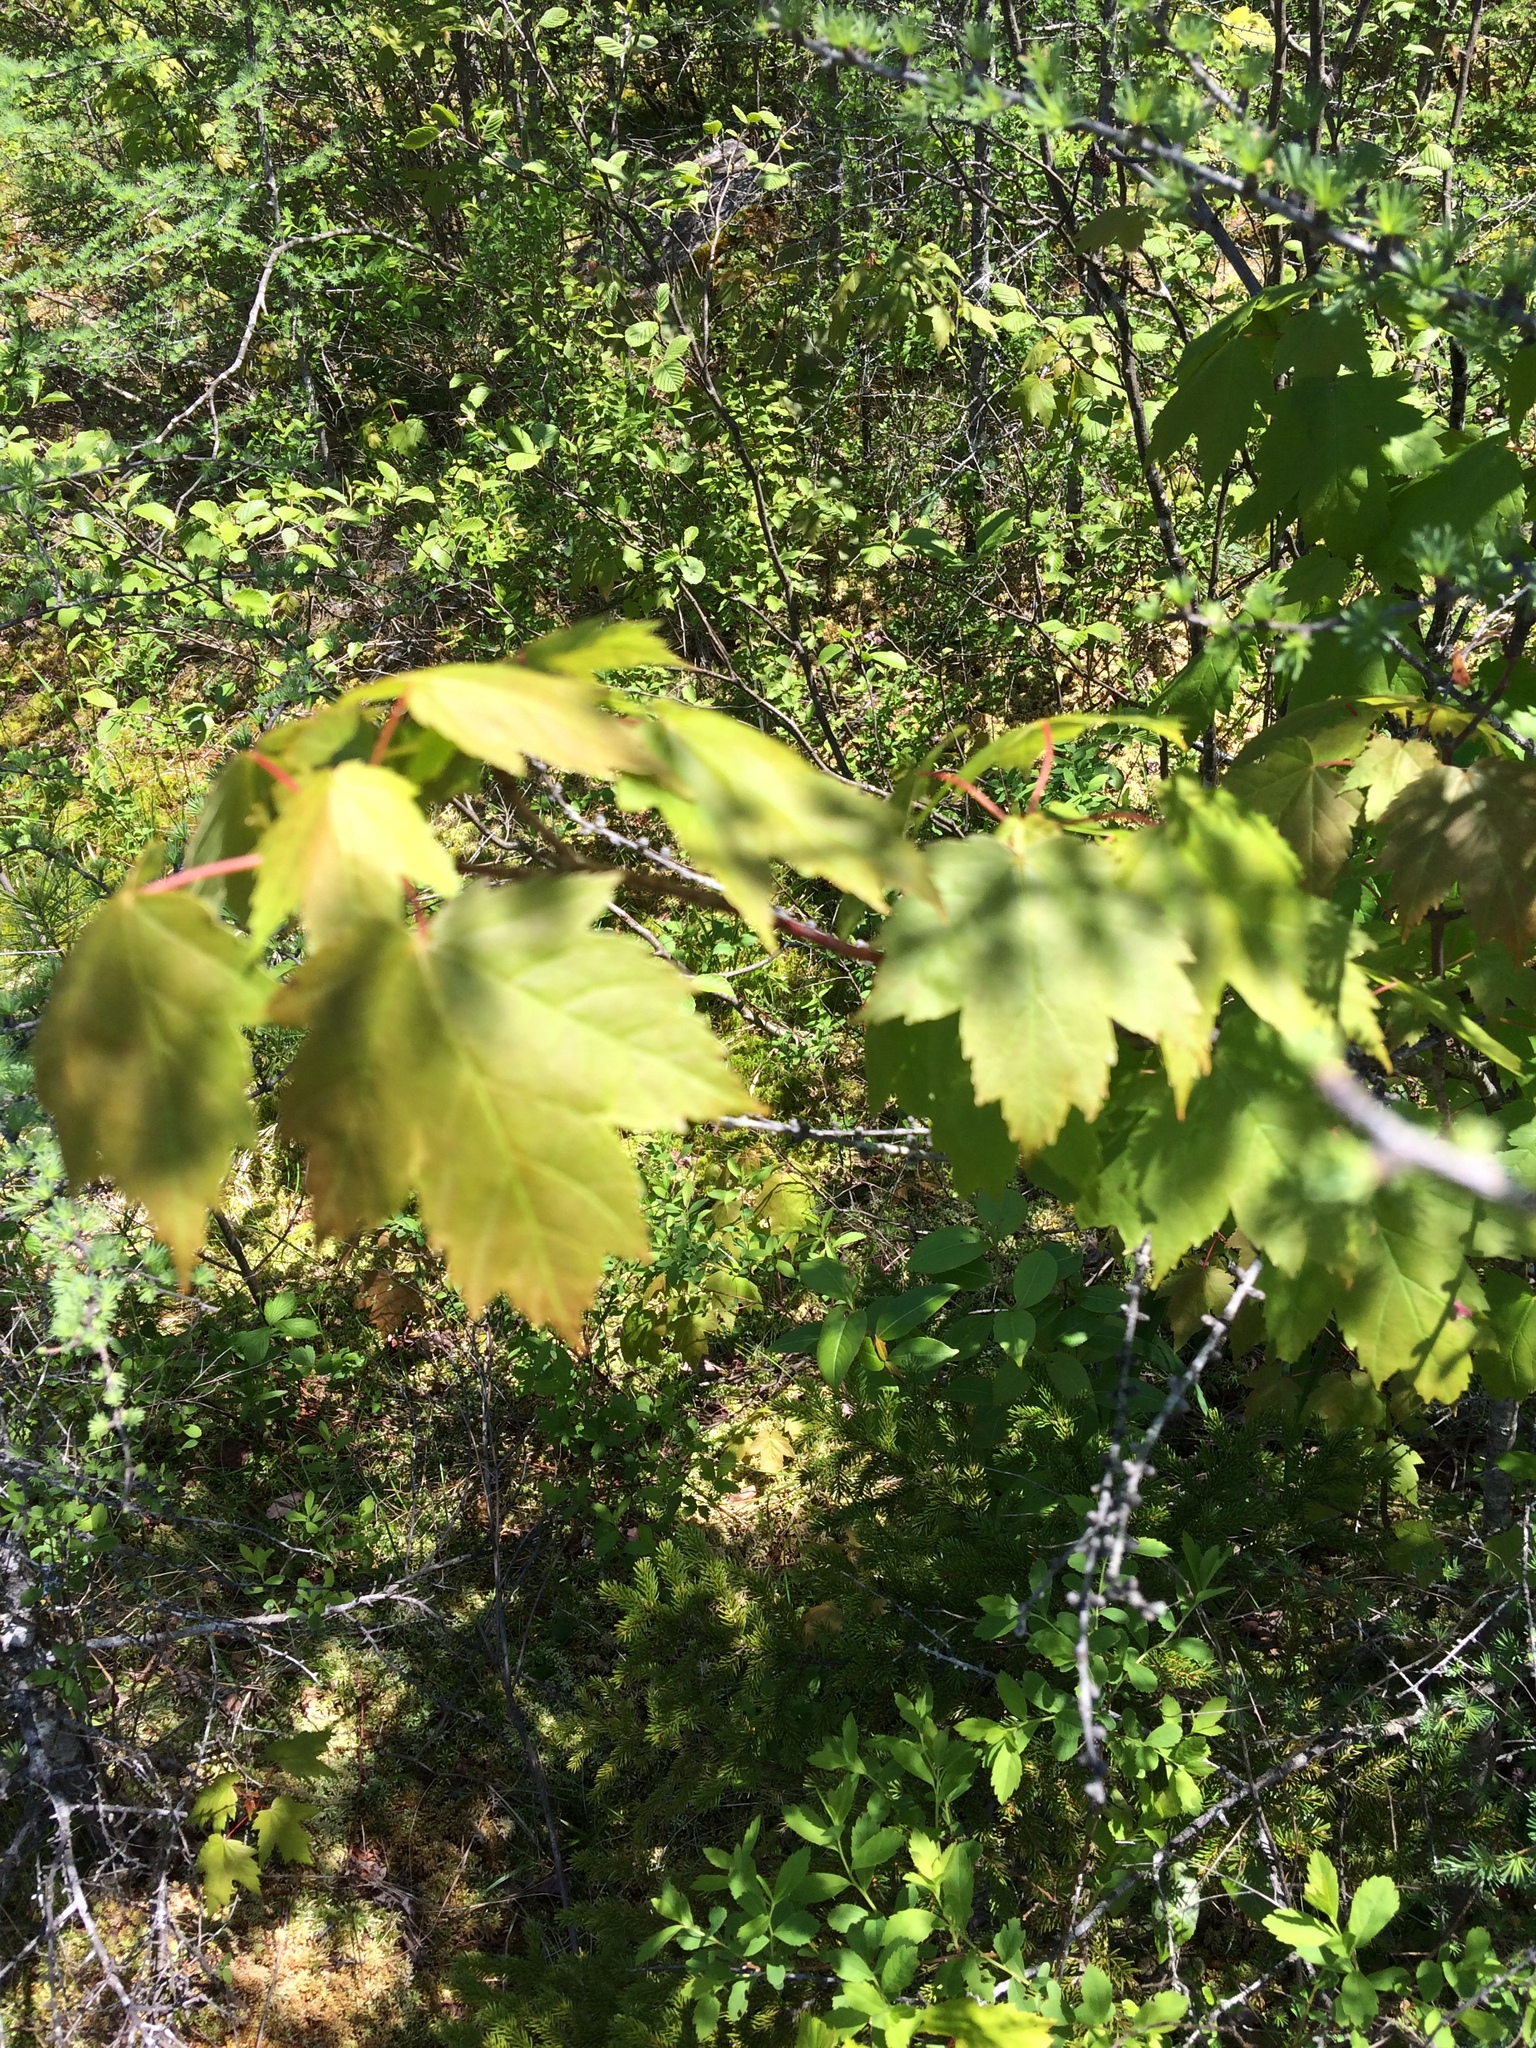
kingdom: Plantae
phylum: Tracheophyta
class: Magnoliopsida
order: Sapindales
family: Sapindaceae
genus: Acer
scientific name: Acer rubrum
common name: Red maple
